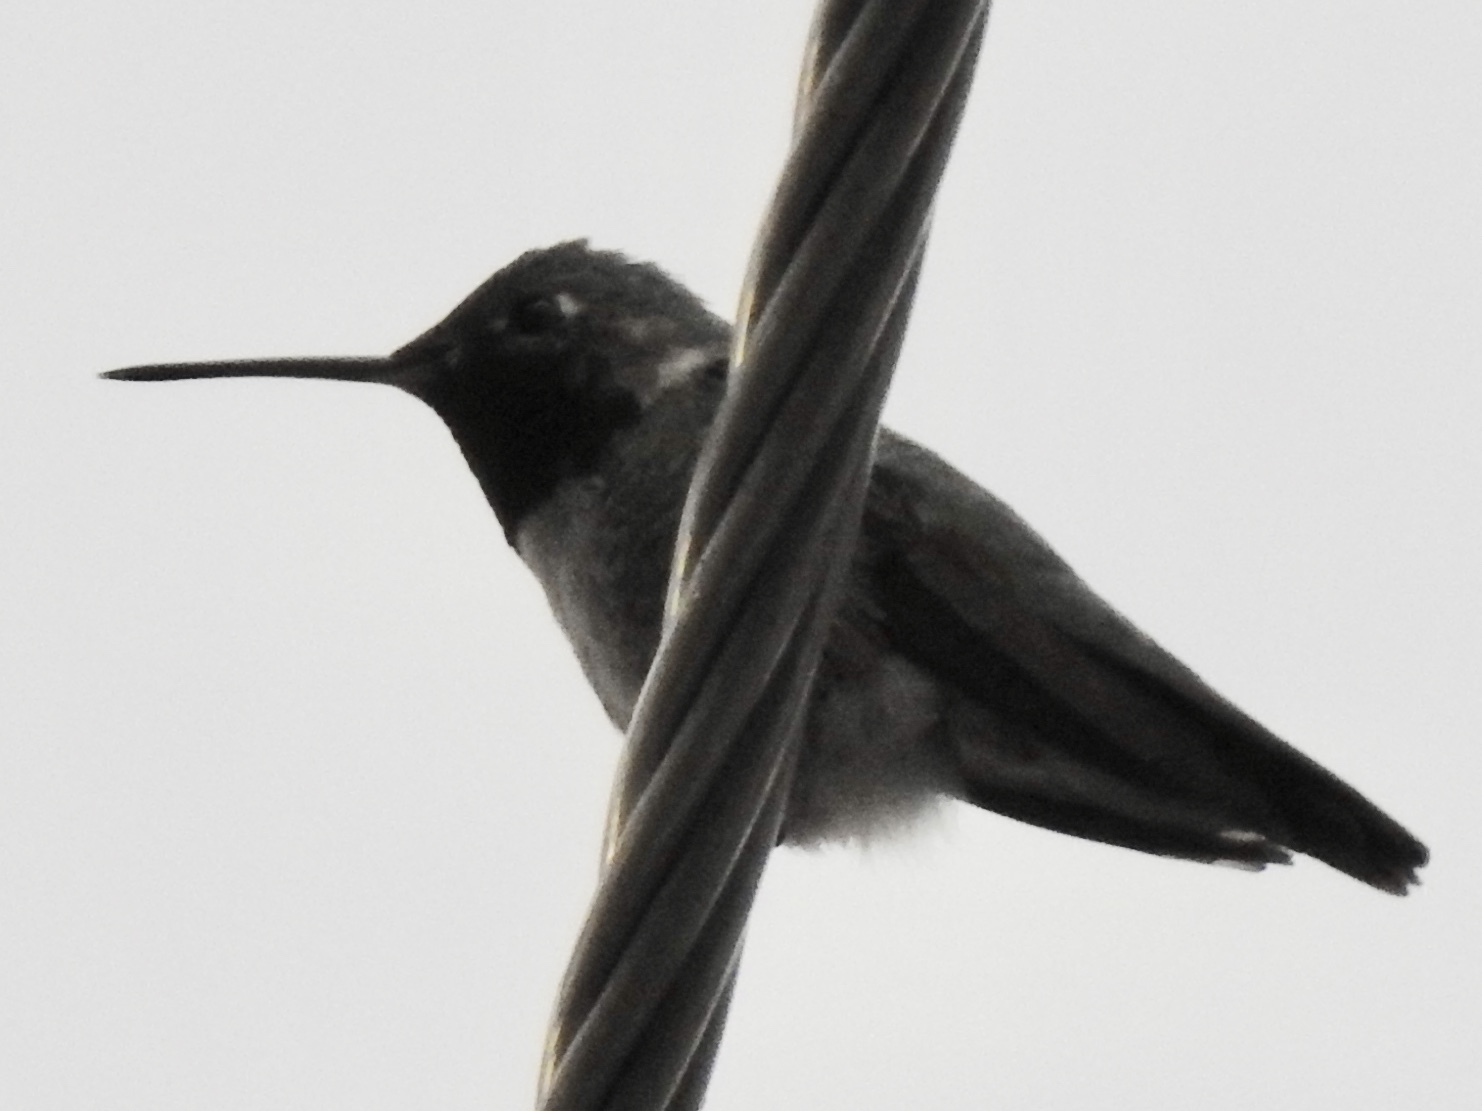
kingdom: Animalia
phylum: Chordata
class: Aves
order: Apodiformes
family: Trochilidae
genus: Selasphorus
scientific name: Selasphorus platycercus
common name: Broad-tailed hummingbird
